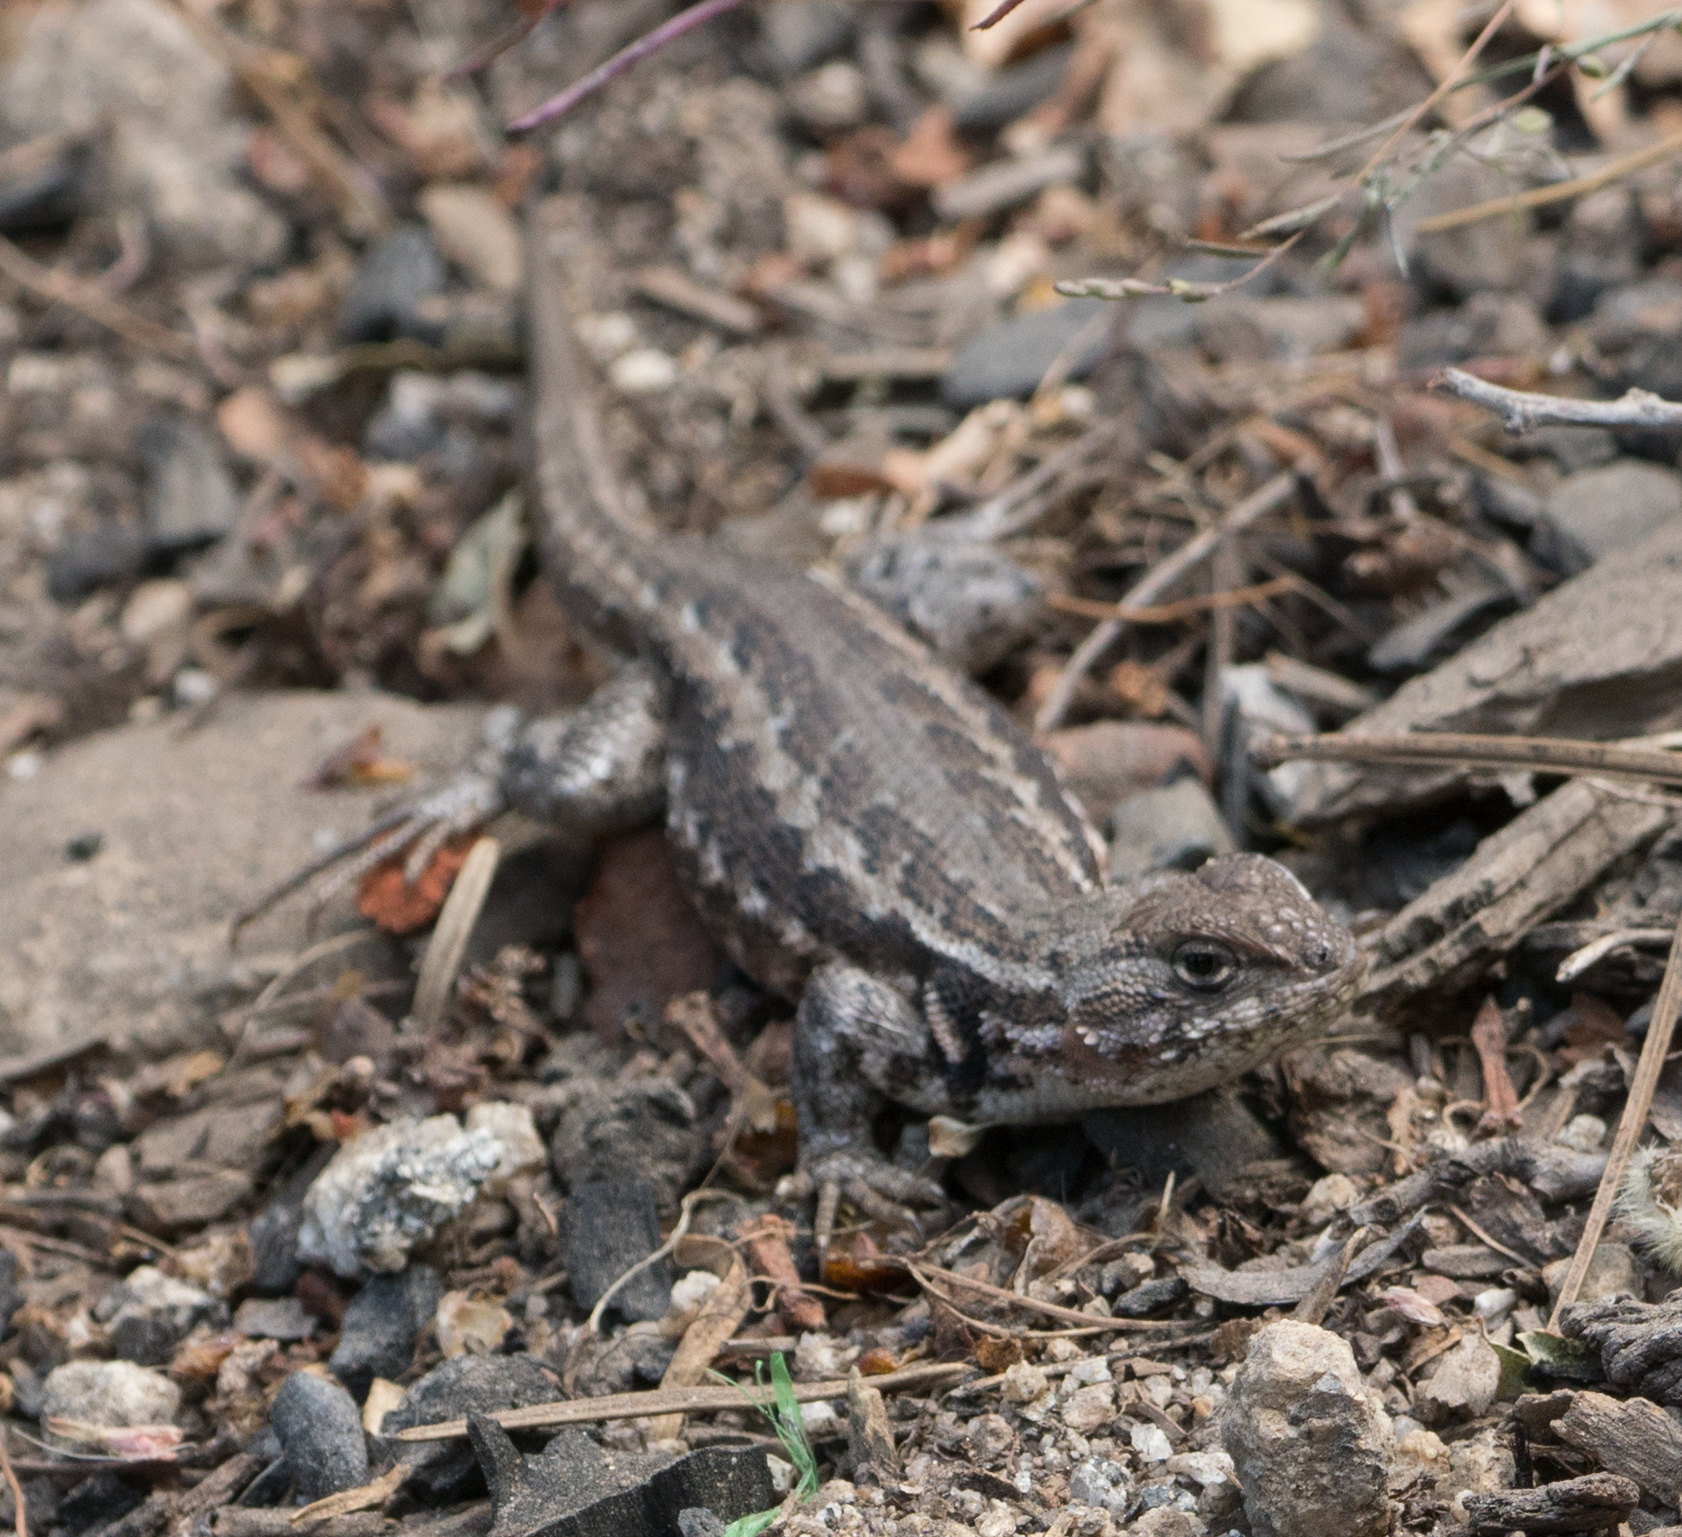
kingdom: Animalia
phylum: Chordata
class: Squamata
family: Phrynosomatidae
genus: Sceloporus
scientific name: Sceloporus graciosus
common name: Sagebrush lizard
